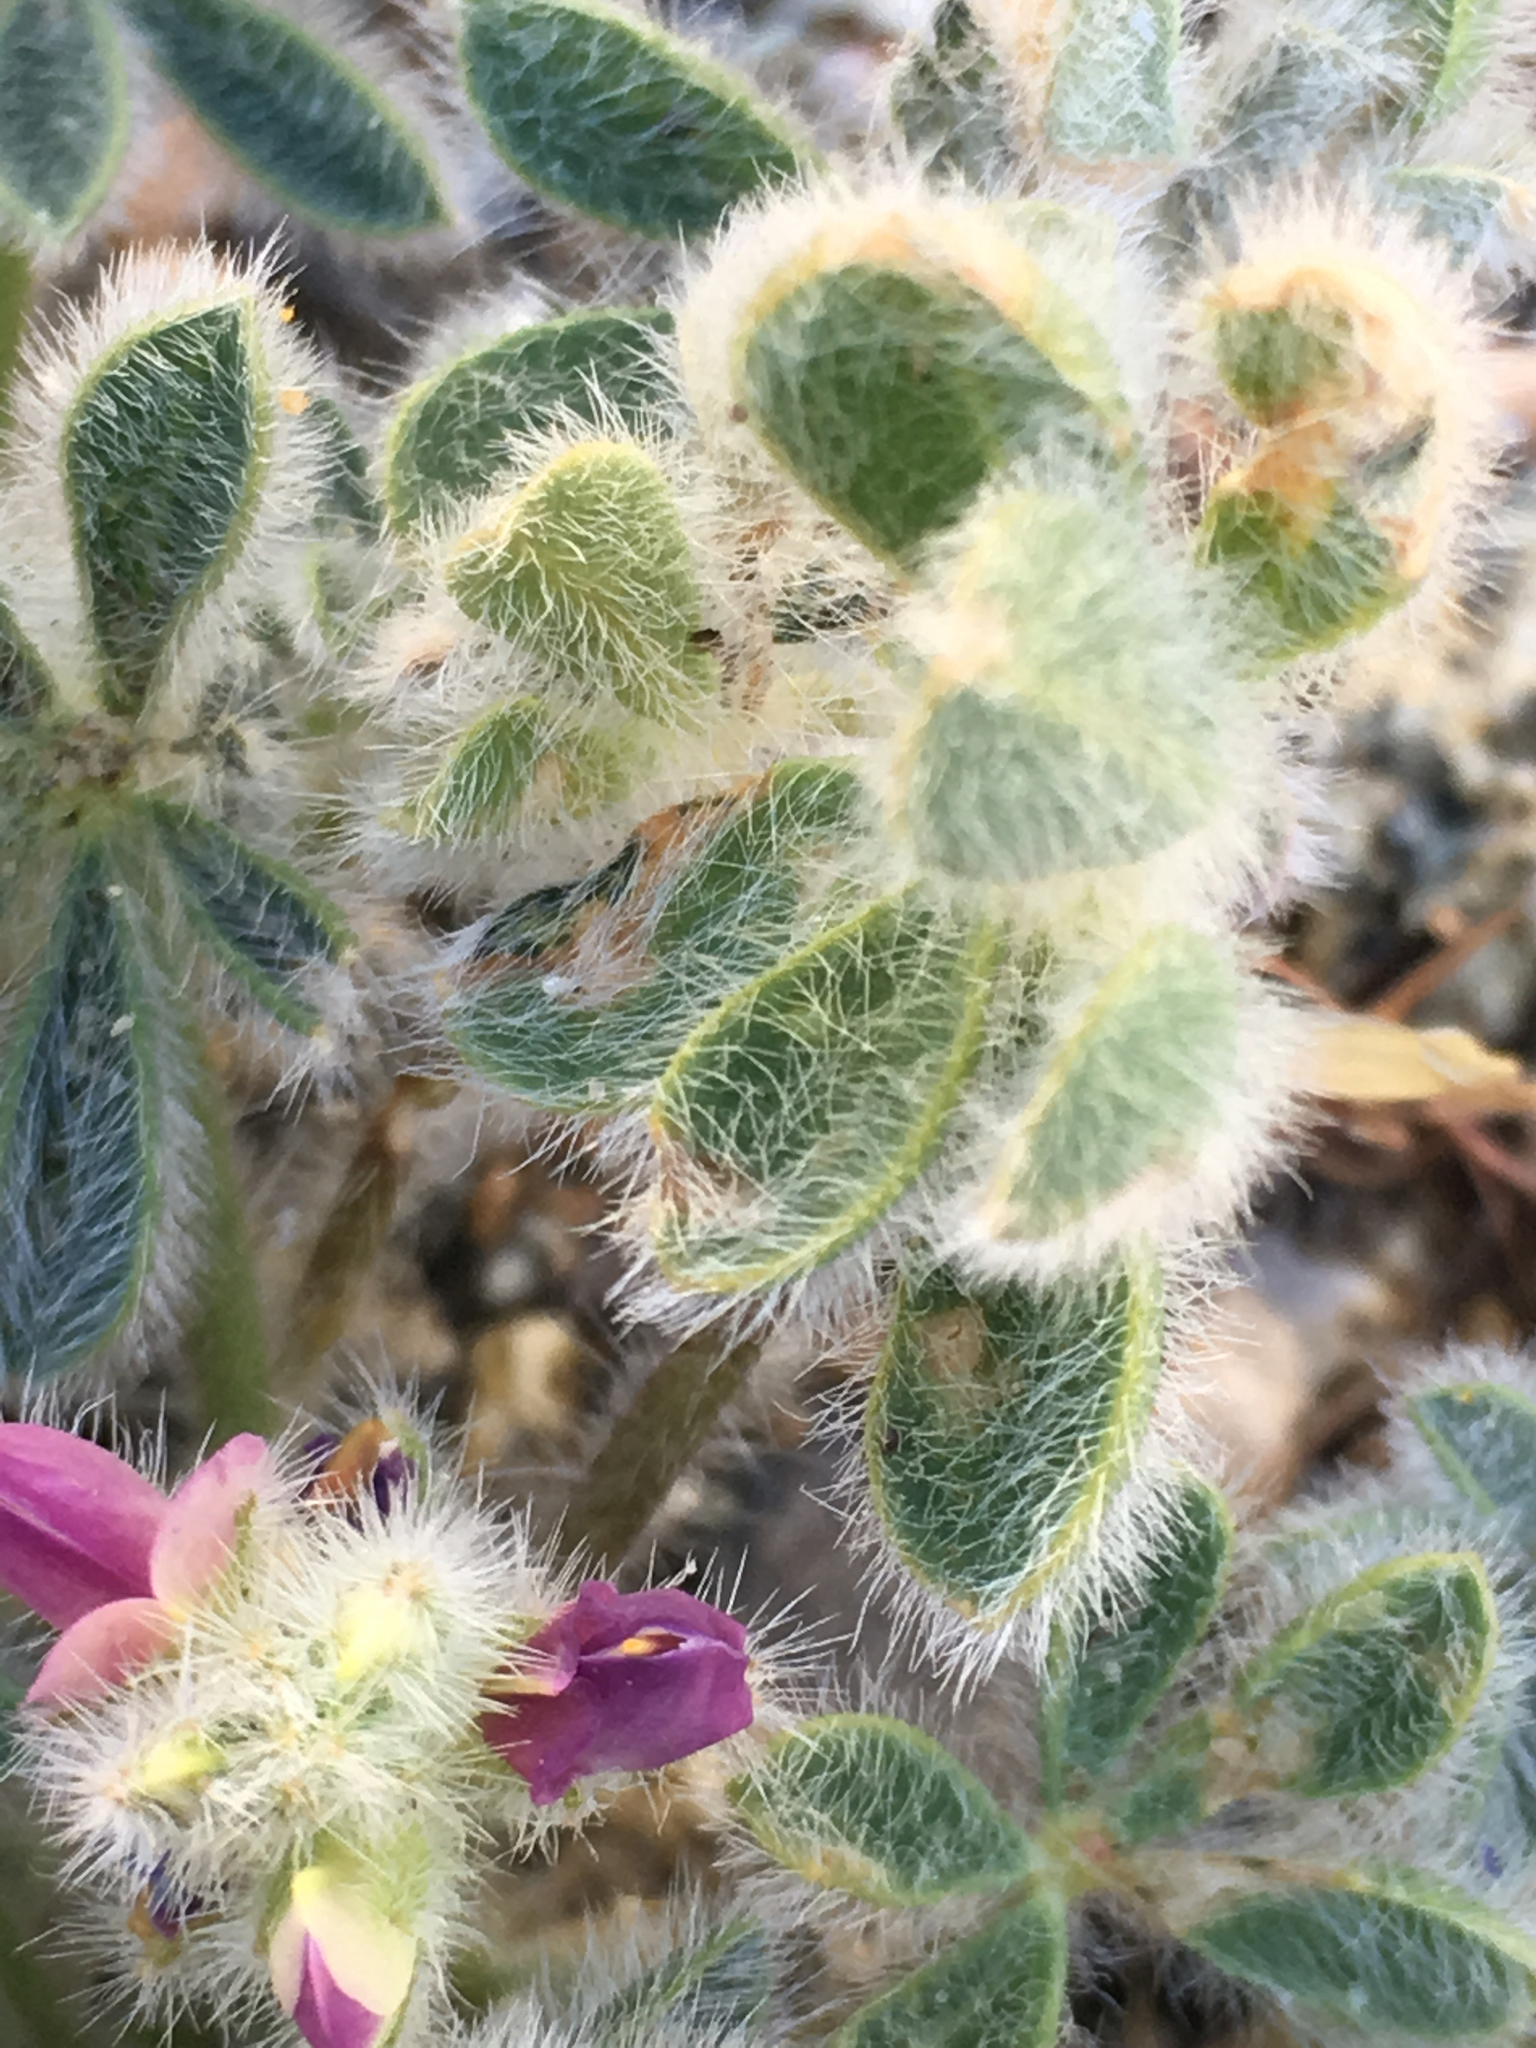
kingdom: Plantae
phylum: Tracheophyta
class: Magnoliopsida
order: Fabales
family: Fabaceae
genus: Lupinus
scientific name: Lupinus concinnus
